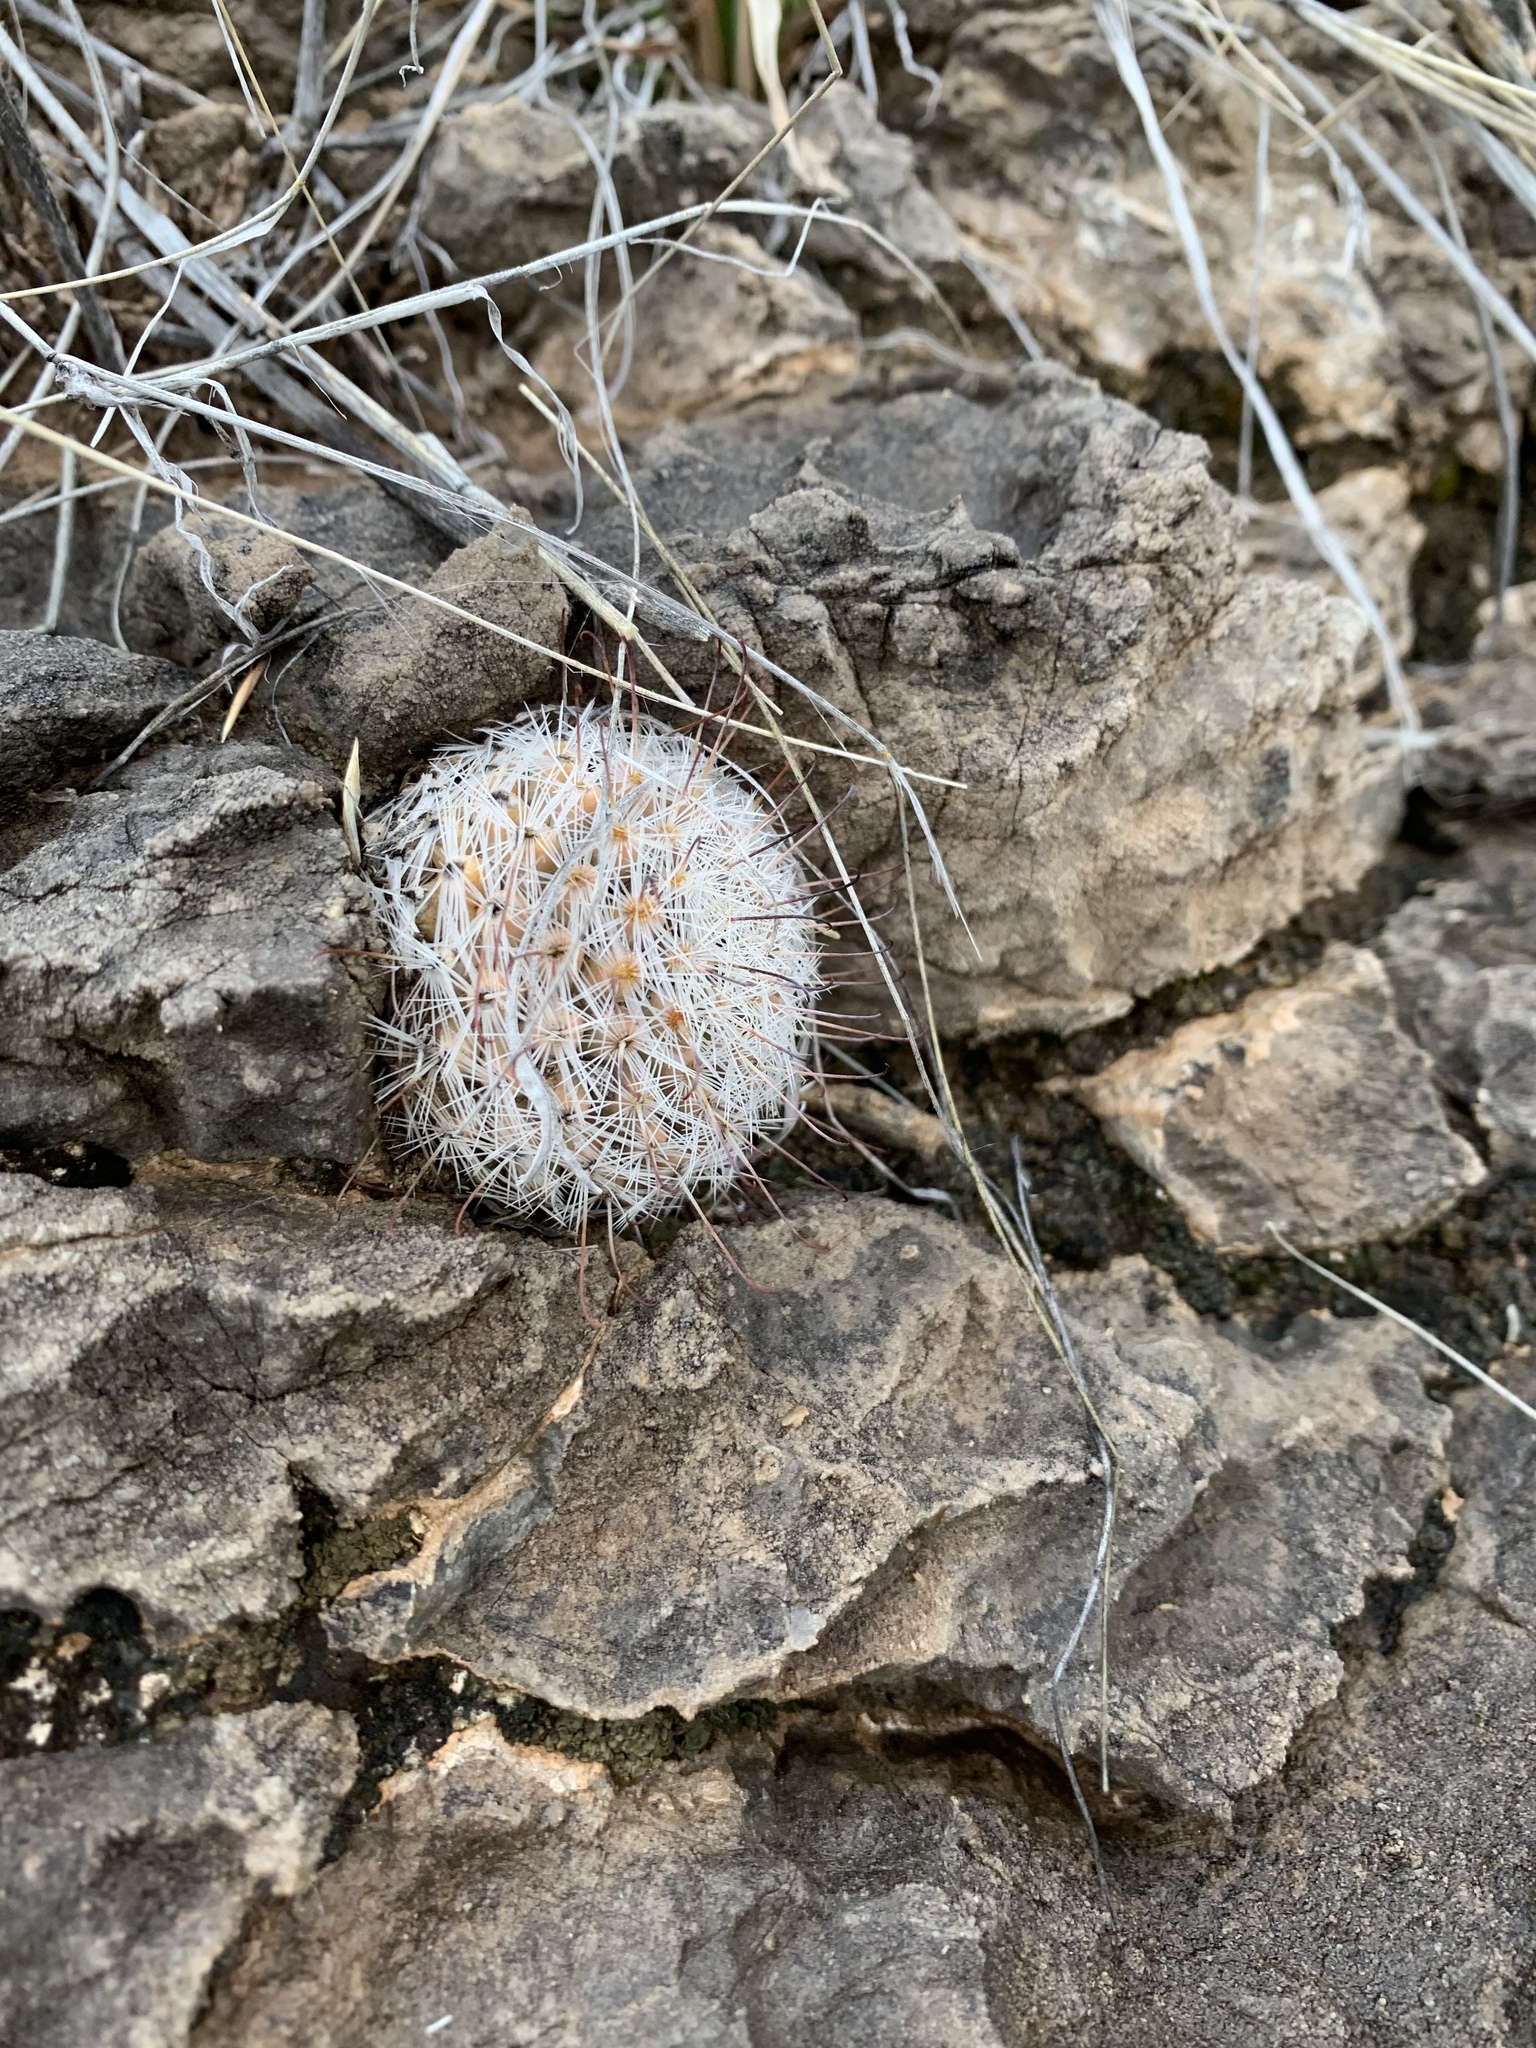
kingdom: Plantae
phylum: Tracheophyta
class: Magnoliopsida
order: Caryophyllales
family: Cactaceae
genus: Cochemiea
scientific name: Cochemiea grahamii
